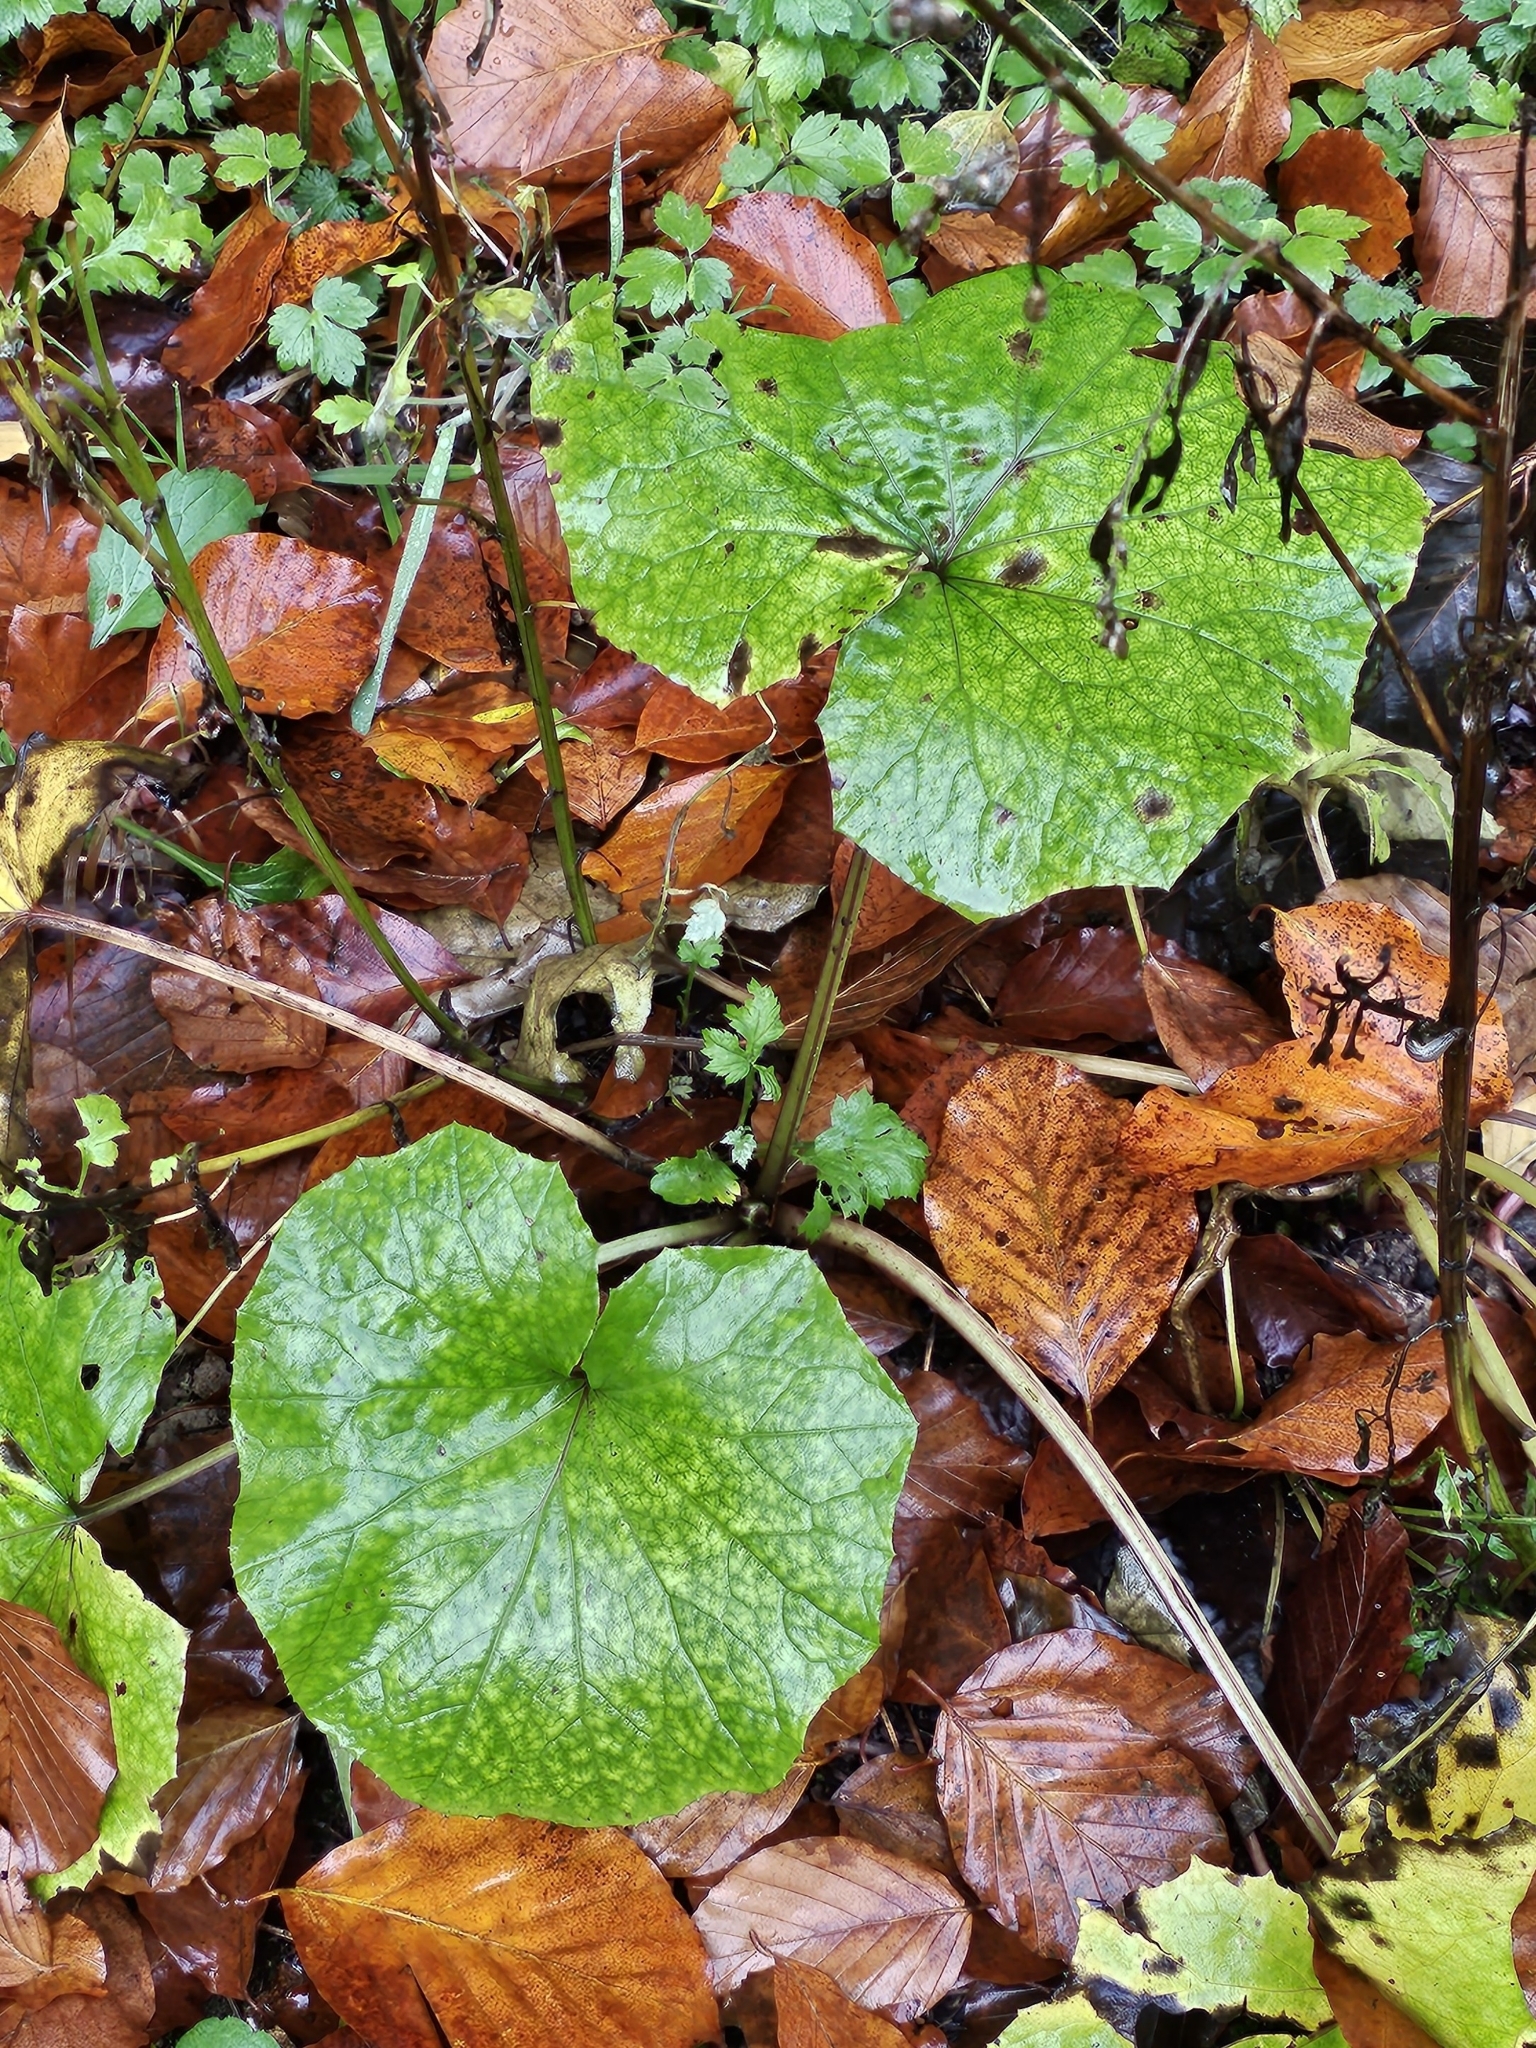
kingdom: Plantae
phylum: Tracheophyta
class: Magnoliopsida
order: Asterales
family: Asteraceae
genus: Tussilago
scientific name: Tussilago farfara
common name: Coltsfoot
